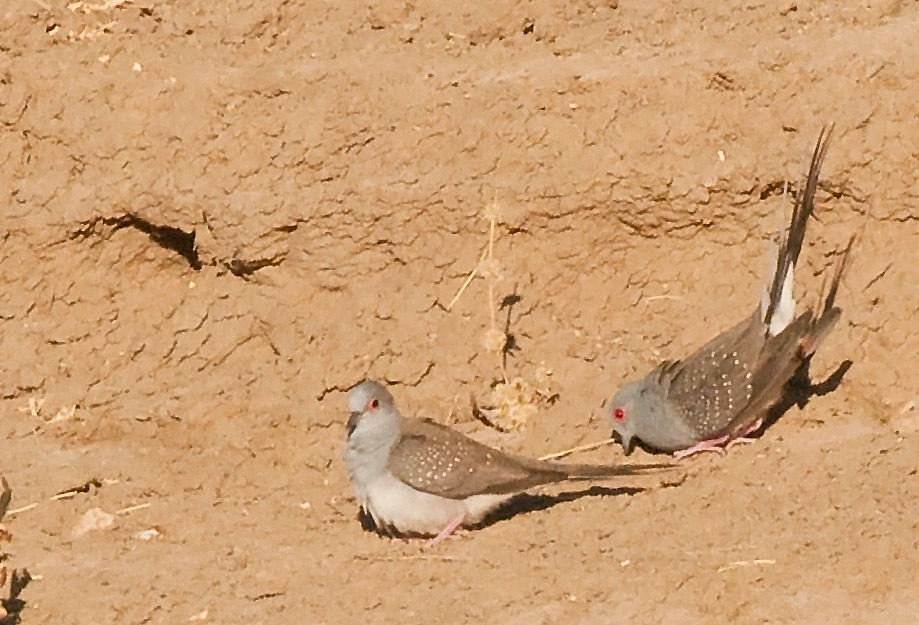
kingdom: Animalia
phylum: Chordata
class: Aves
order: Columbiformes
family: Columbidae
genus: Geopelia
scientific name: Geopelia cuneata
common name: Diamond dove
